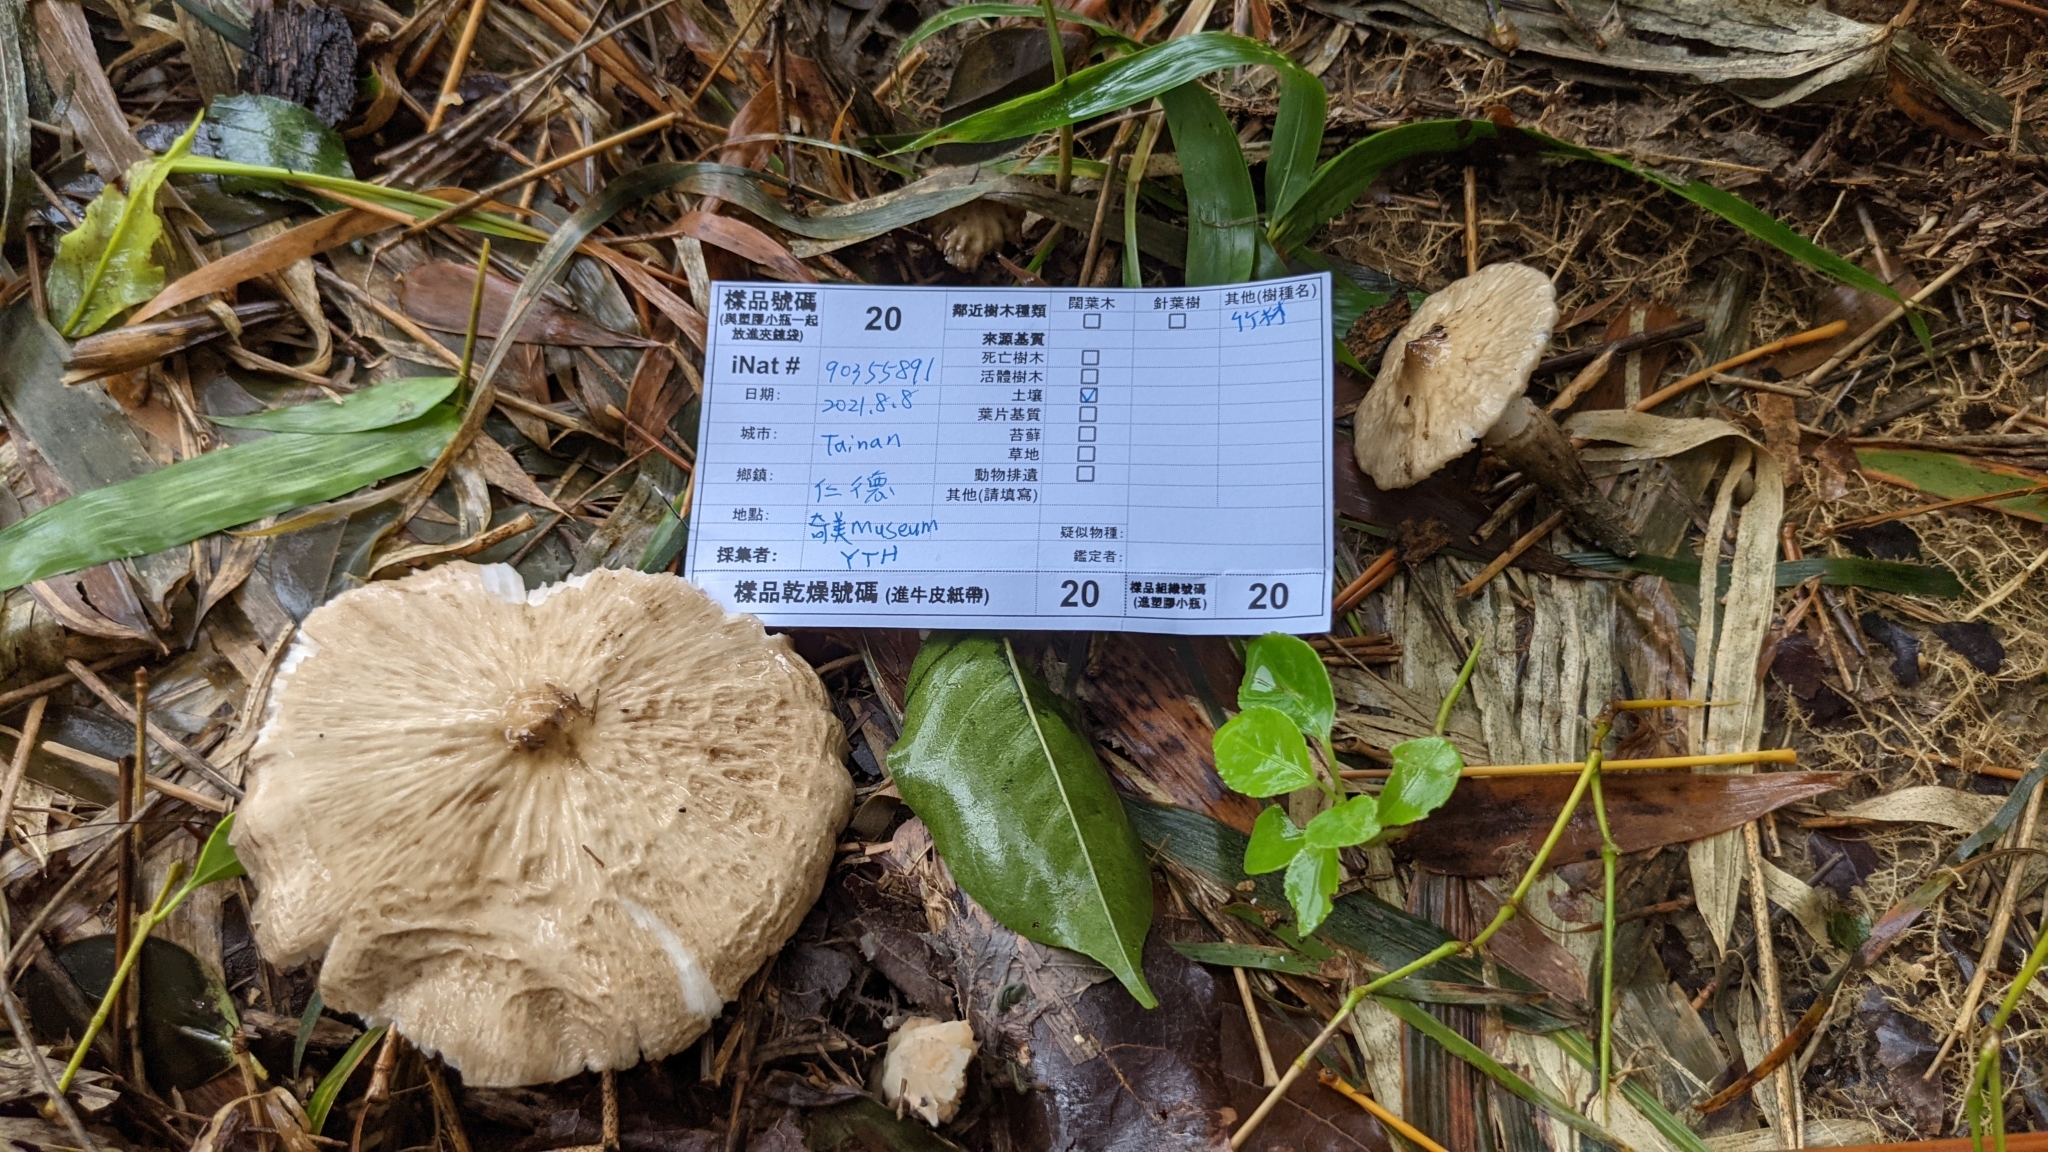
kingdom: Fungi
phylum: Basidiomycota
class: Agaricomycetes
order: Agaricales
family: Lyophyllaceae
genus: Termitomyces
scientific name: Termitomyces eurrhizus
